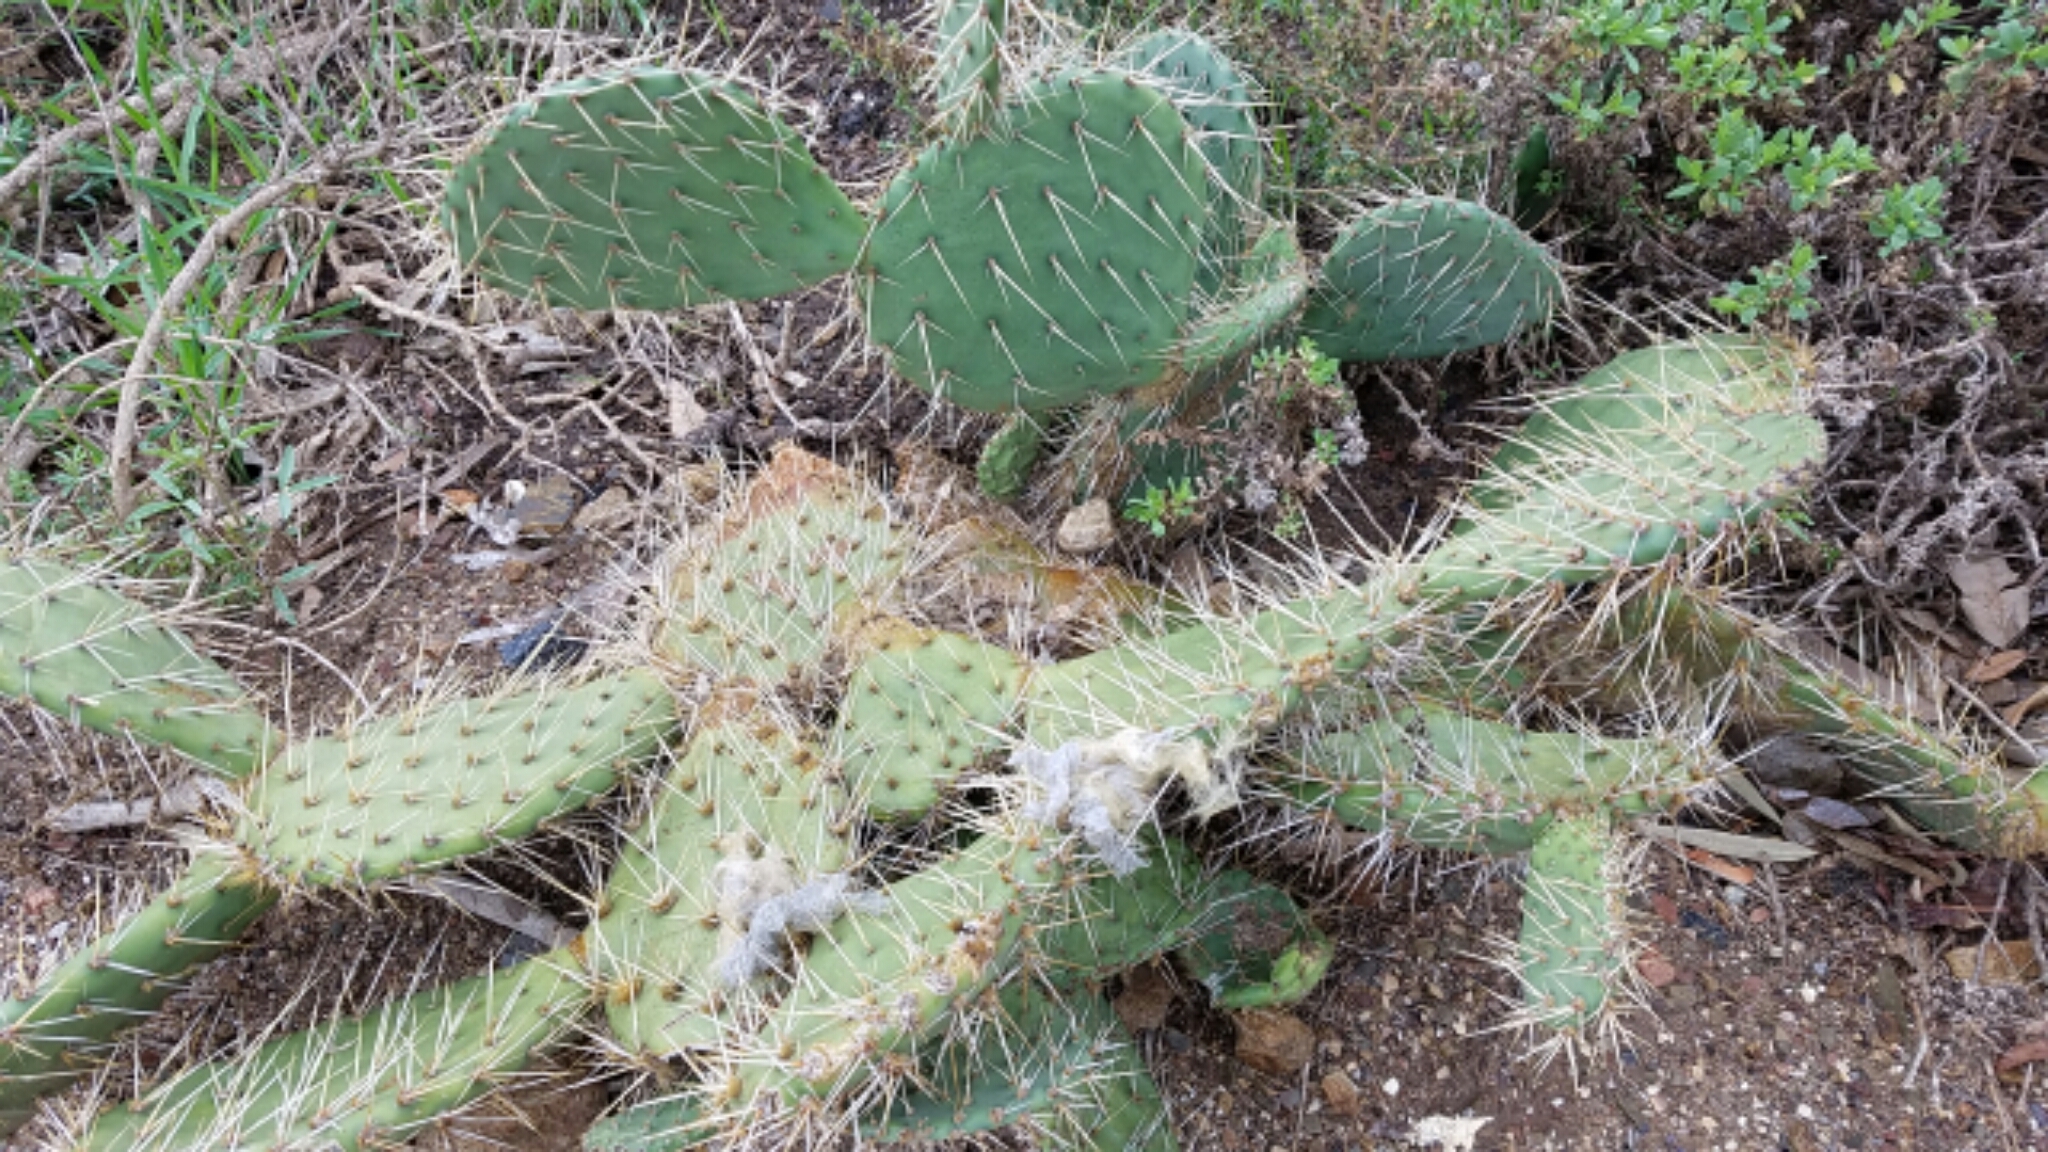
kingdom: Plantae
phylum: Tracheophyta
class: Magnoliopsida
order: Caryophyllales
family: Cactaceae
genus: Opuntia
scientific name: Opuntia littoralis
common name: Coastal prickly-pear
